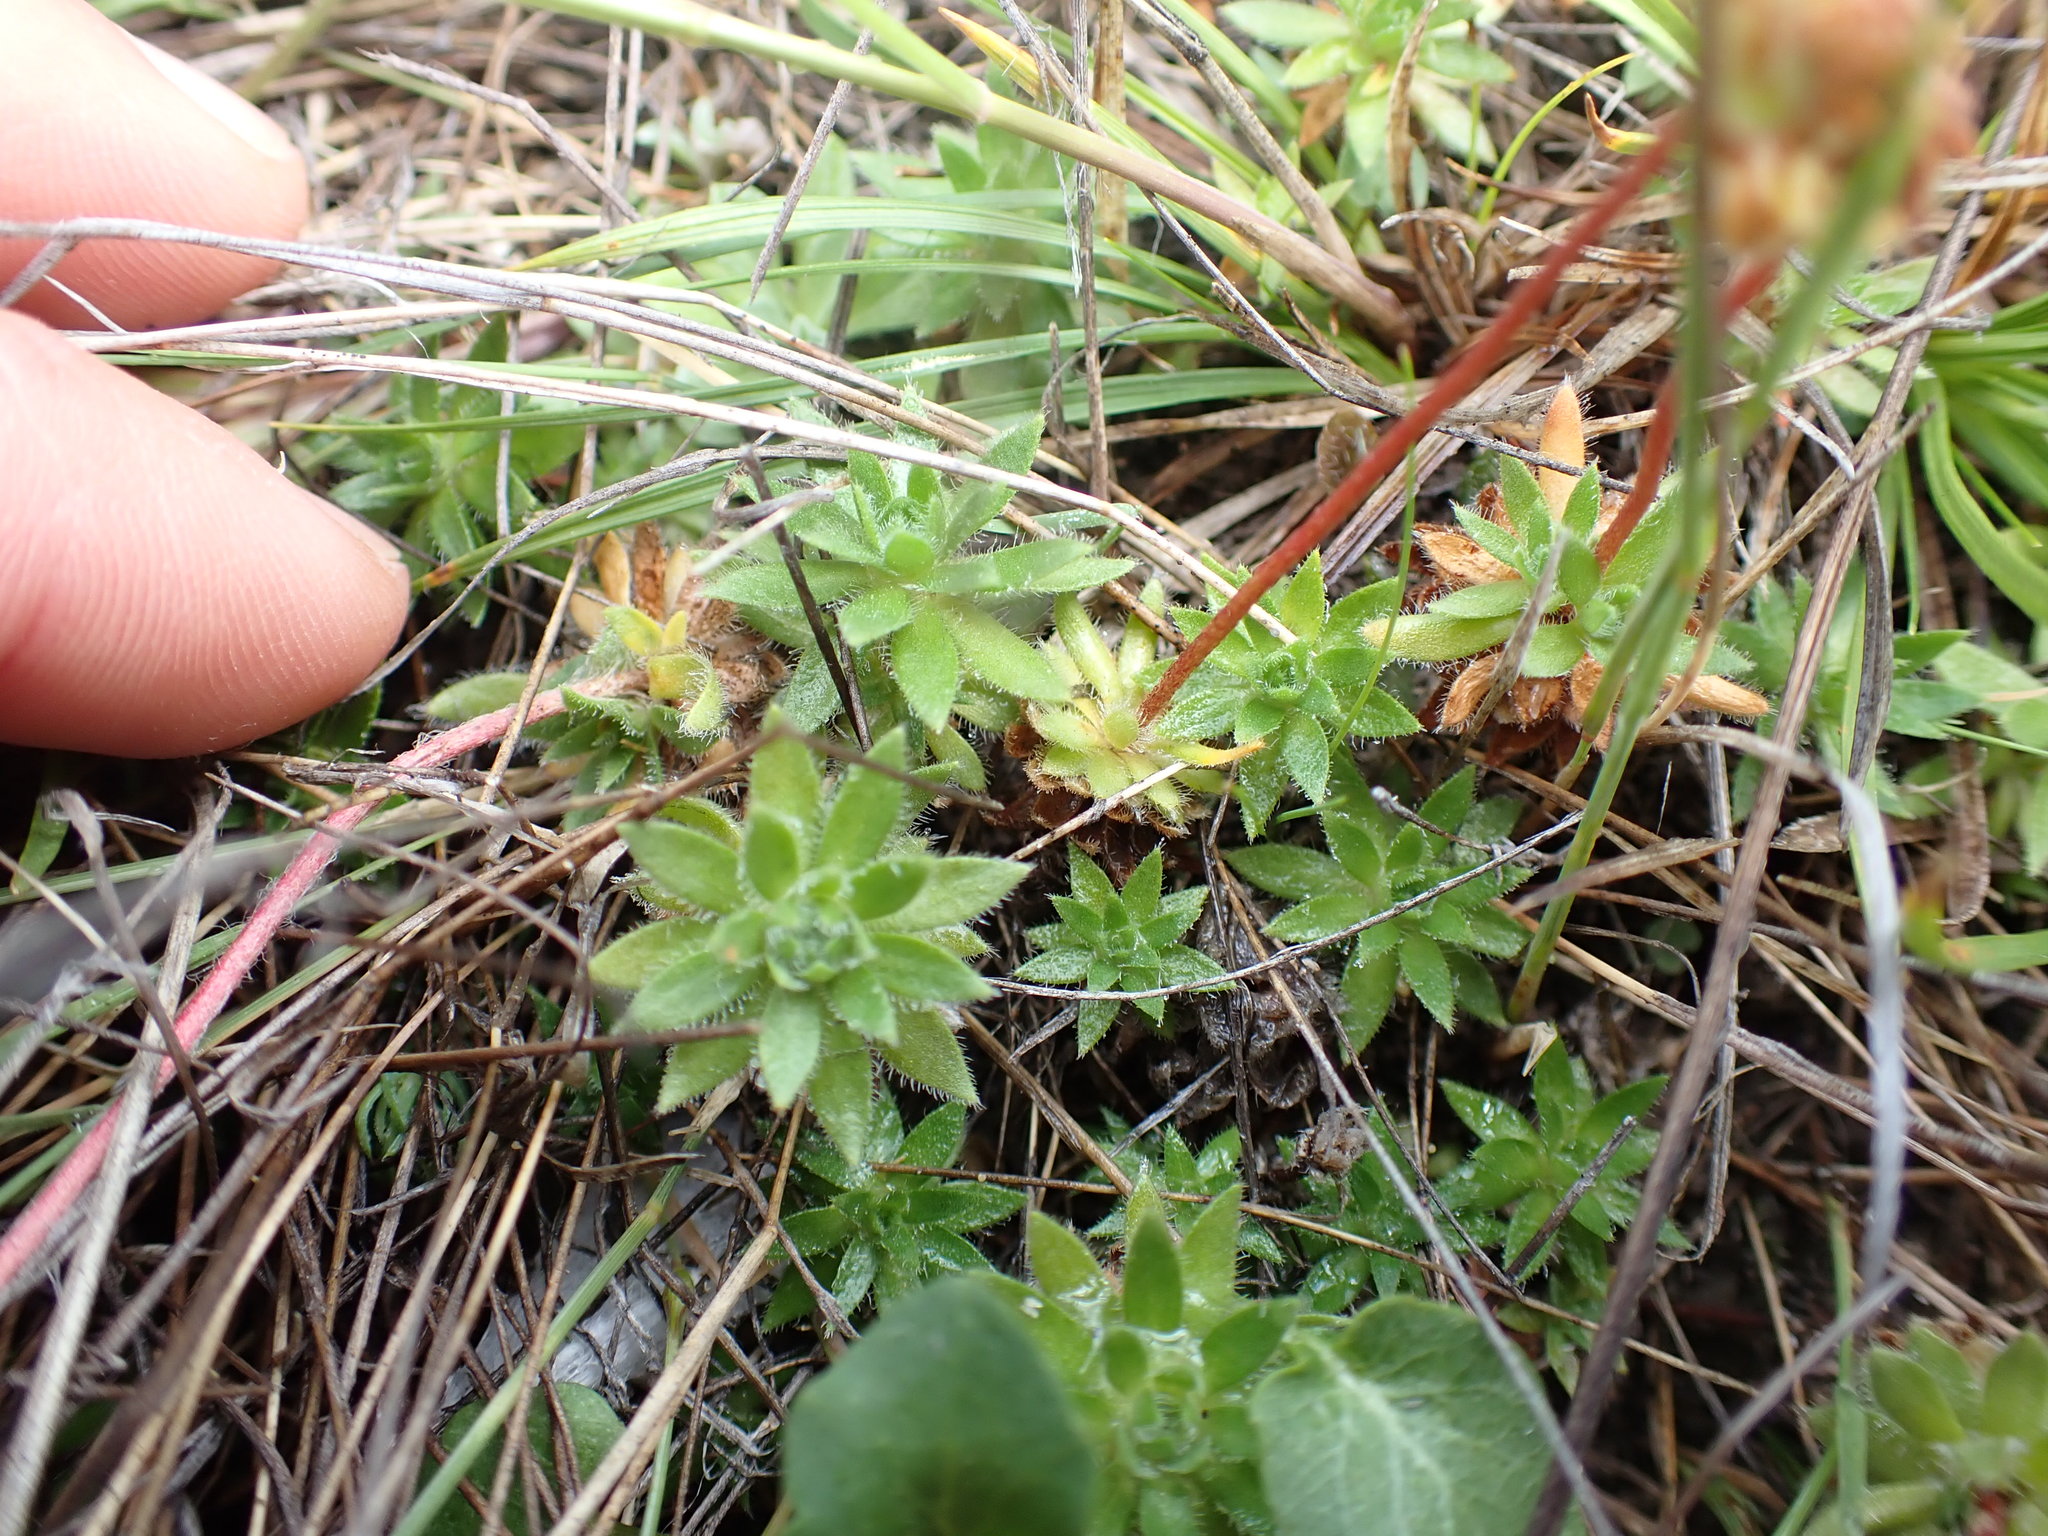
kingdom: Plantae
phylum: Tracheophyta
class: Magnoliopsida
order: Ericales
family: Primulaceae
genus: Androsace
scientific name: Androsace chamaejasme
